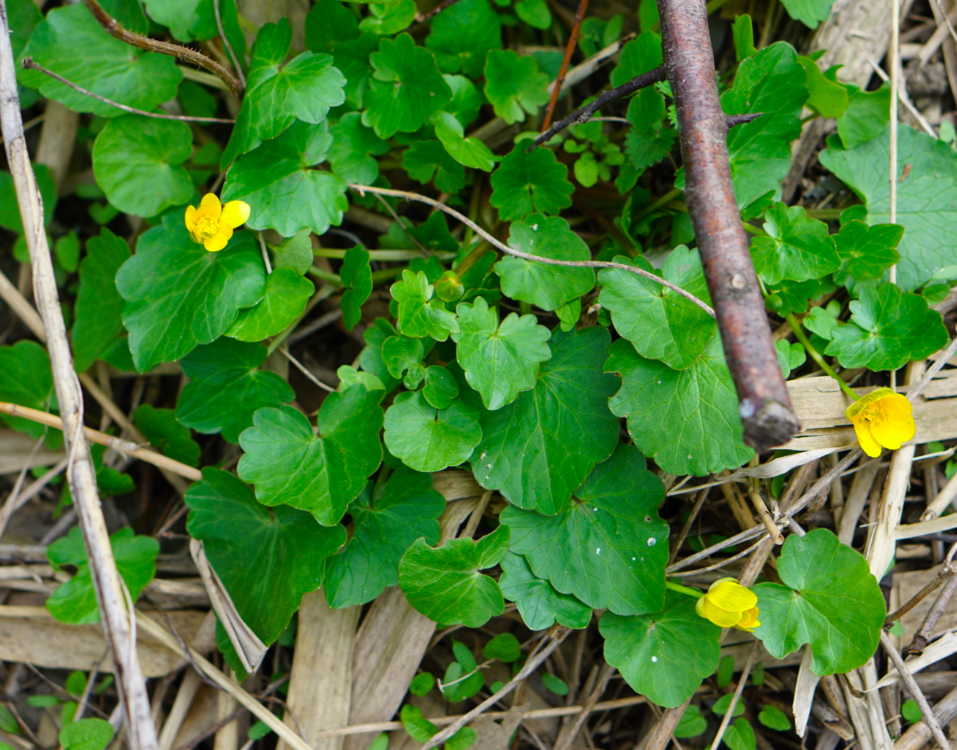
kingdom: Plantae
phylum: Tracheophyta
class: Magnoliopsida
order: Ranunculales
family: Ranunculaceae
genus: Ficaria
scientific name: Ficaria verna
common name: Lesser celandine
